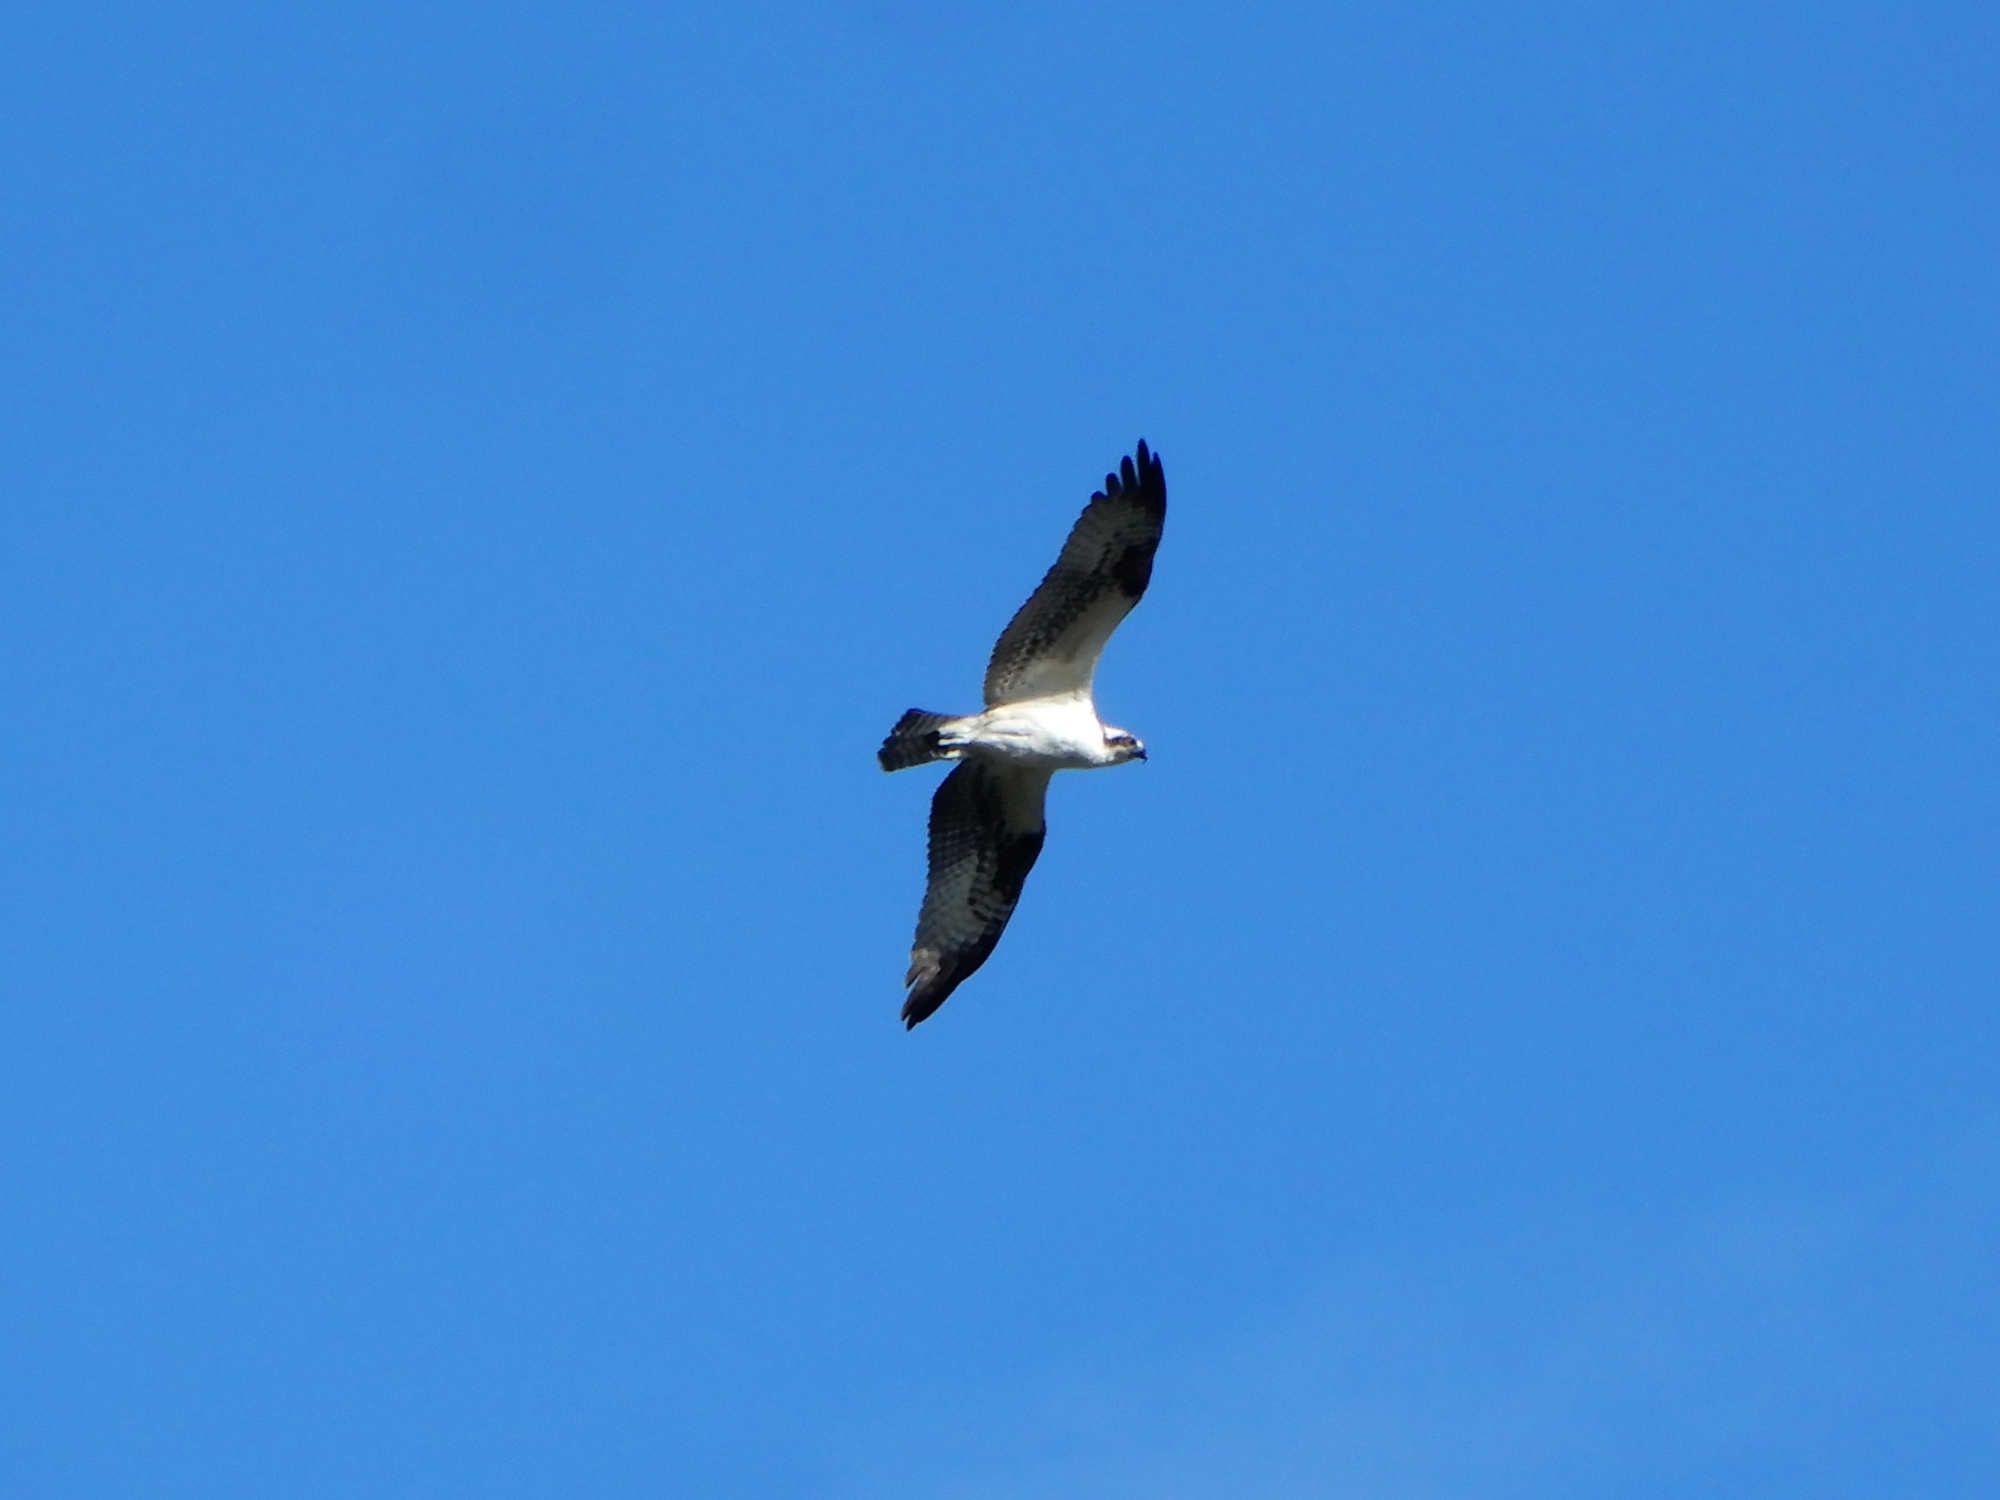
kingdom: Animalia
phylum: Chordata
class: Aves
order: Accipitriformes
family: Pandionidae
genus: Pandion
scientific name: Pandion haliaetus
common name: Osprey
